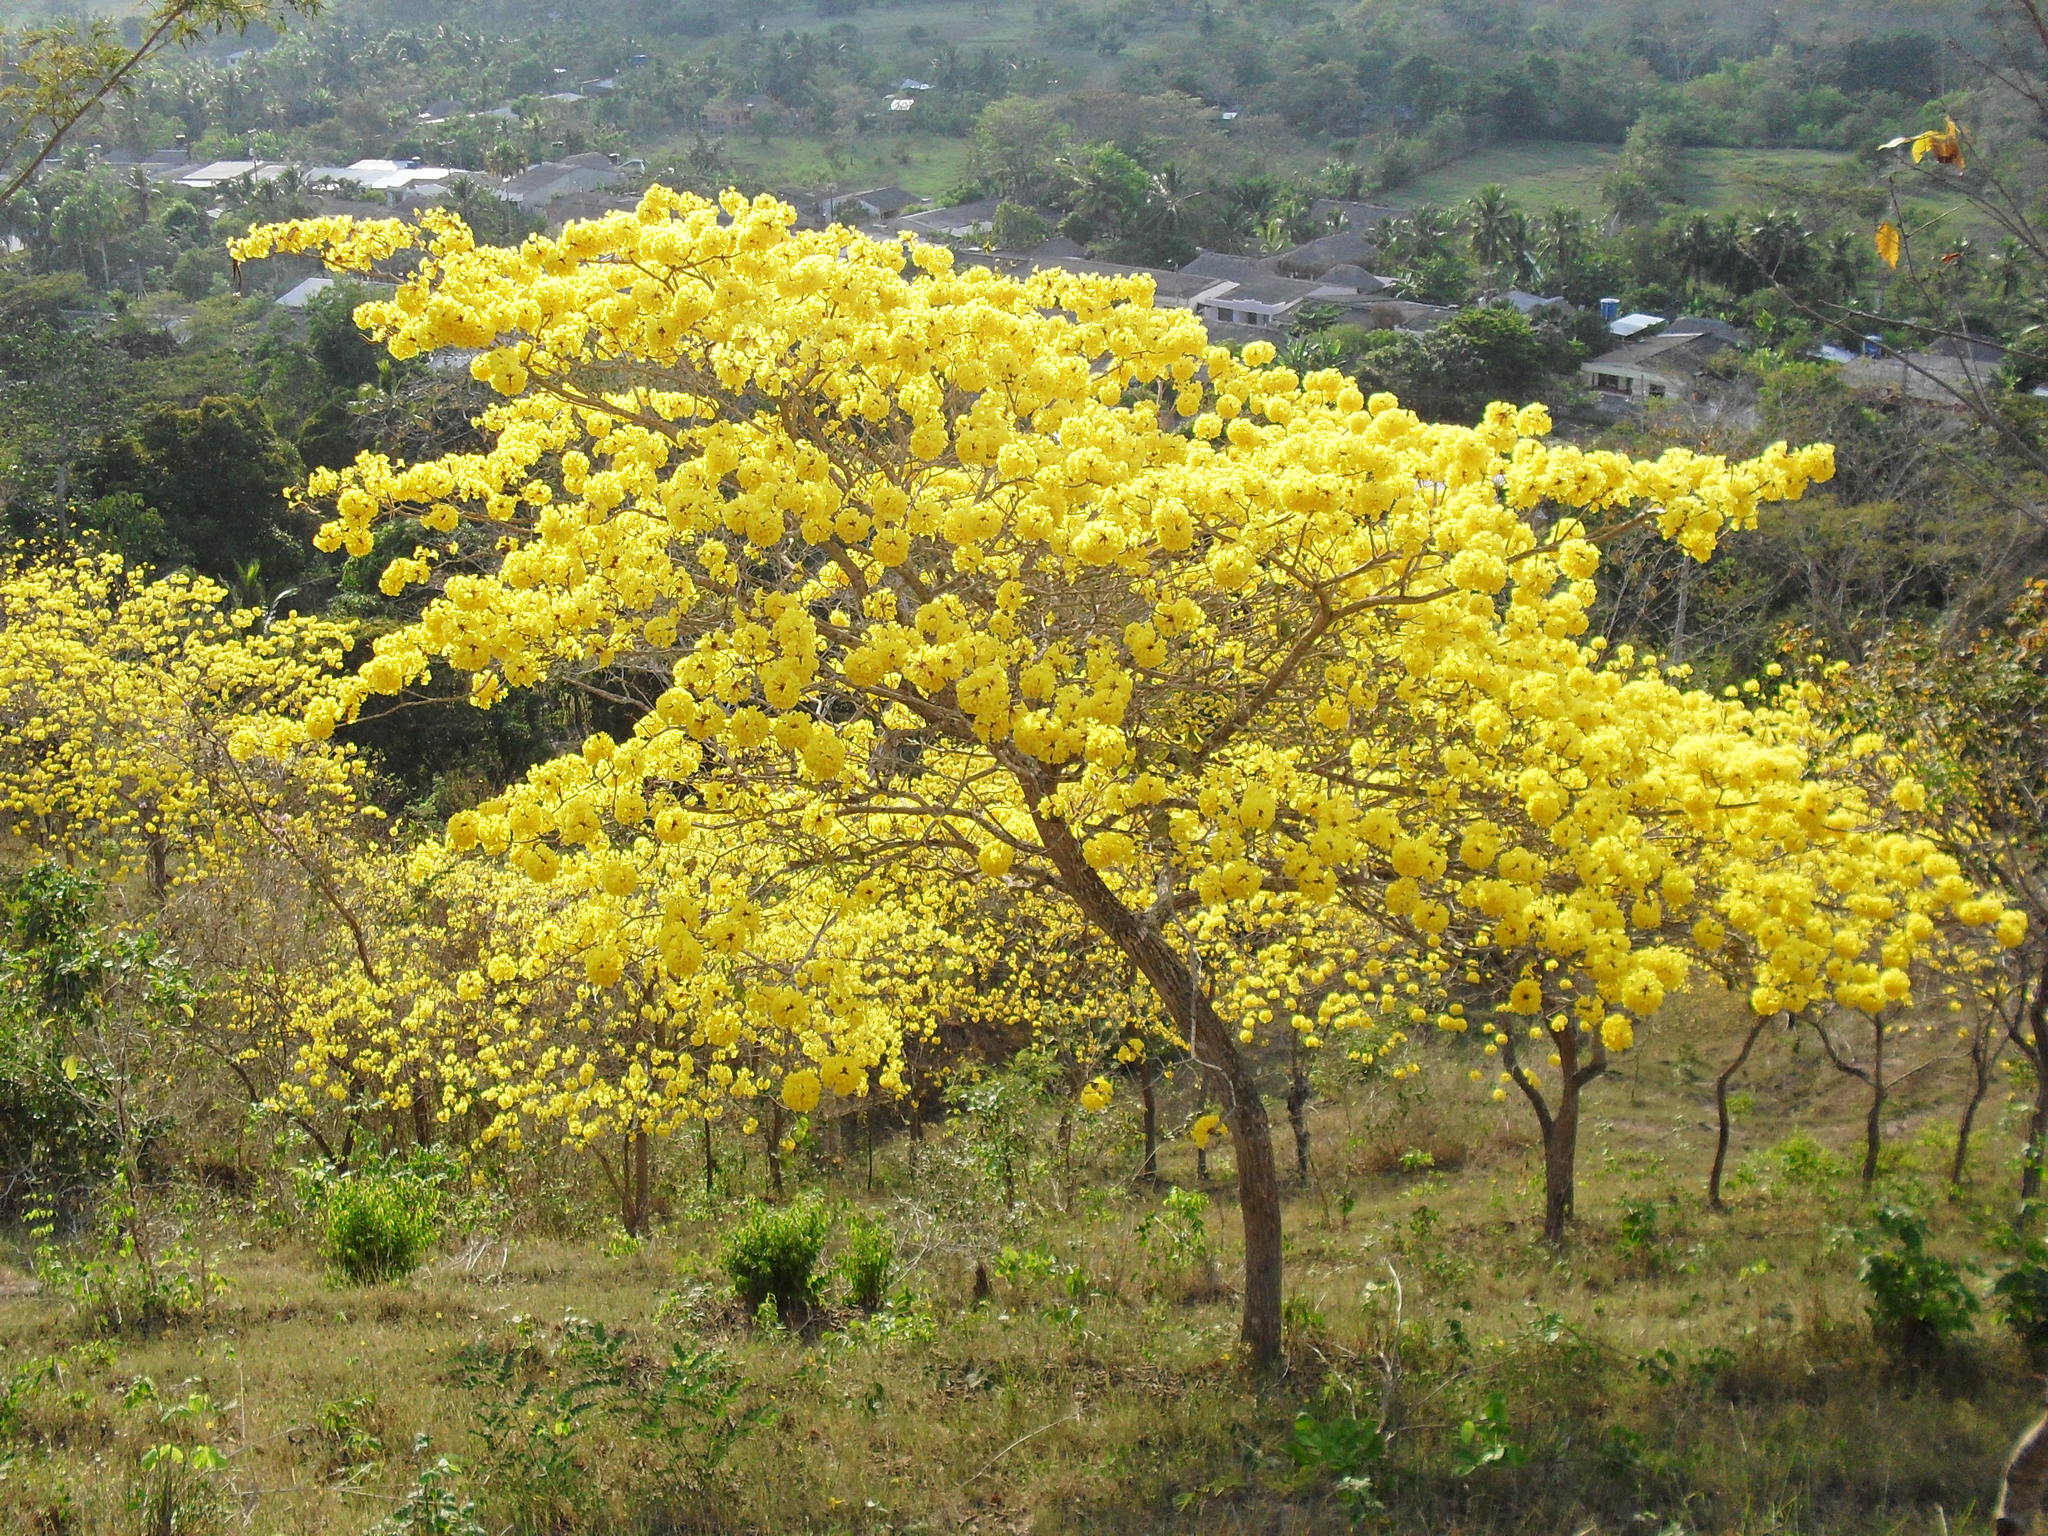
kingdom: Plantae
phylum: Tracheophyta
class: Magnoliopsida
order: Lamiales
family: Bignoniaceae
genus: Handroanthus
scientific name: Handroanthus chrysanthus
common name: Trumpet trees
